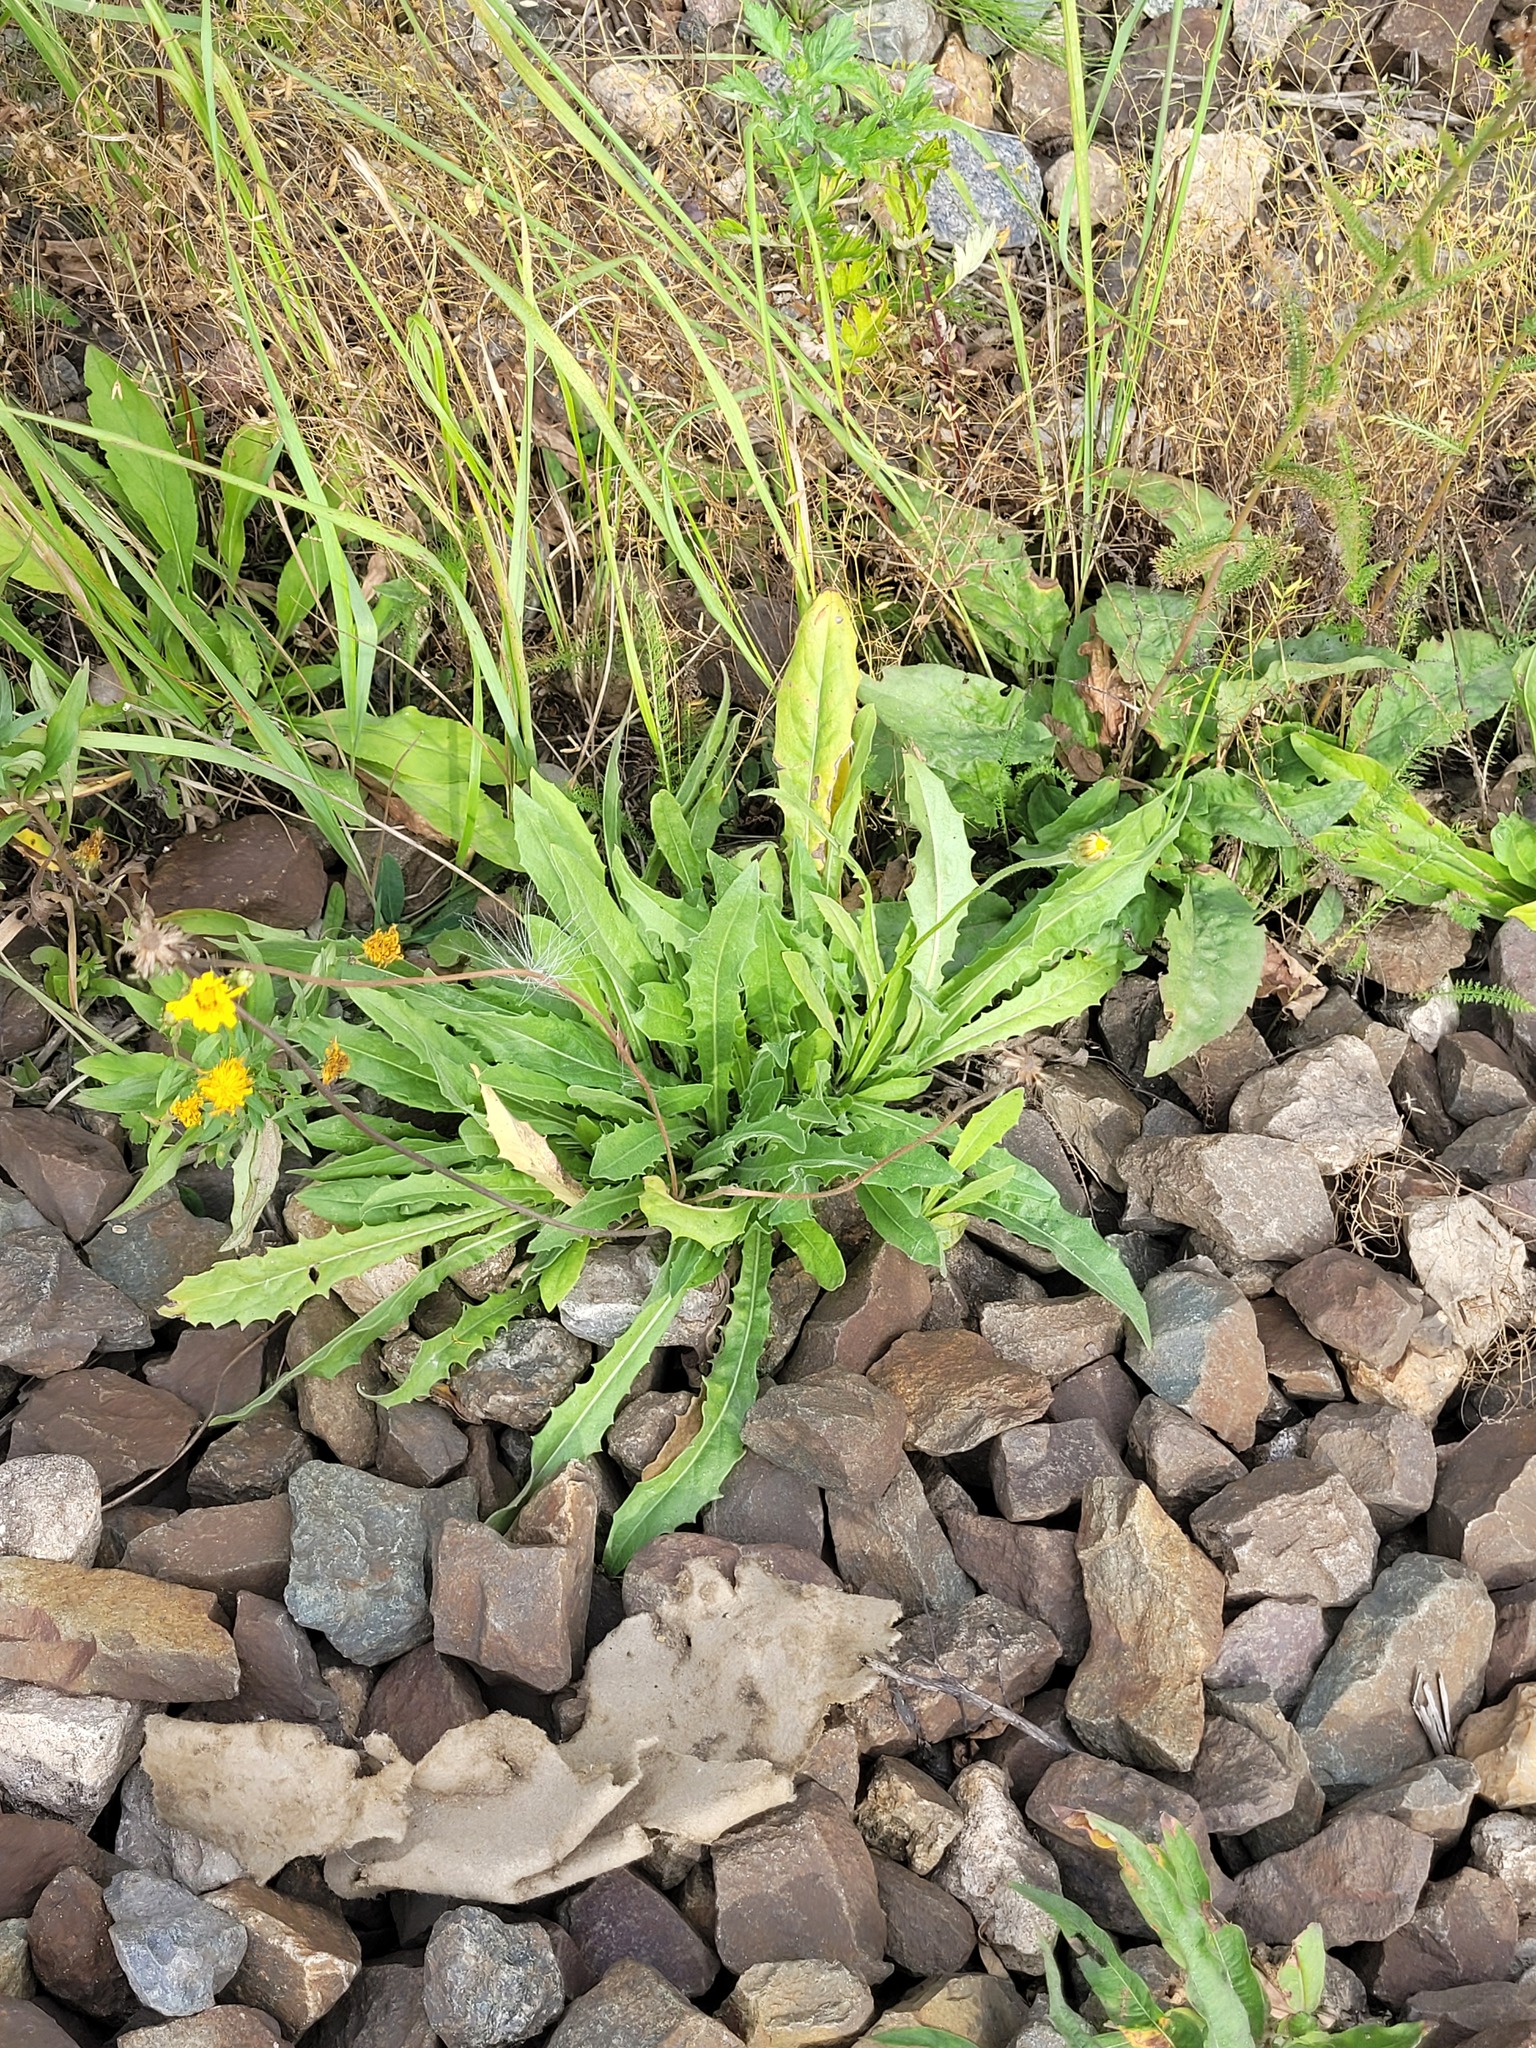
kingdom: Plantae
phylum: Tracheophyta
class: Magnoliopsida
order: Asterales
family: Asteraceae
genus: Leontodon
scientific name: Leontodon hispidus
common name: Rough hawkbit
